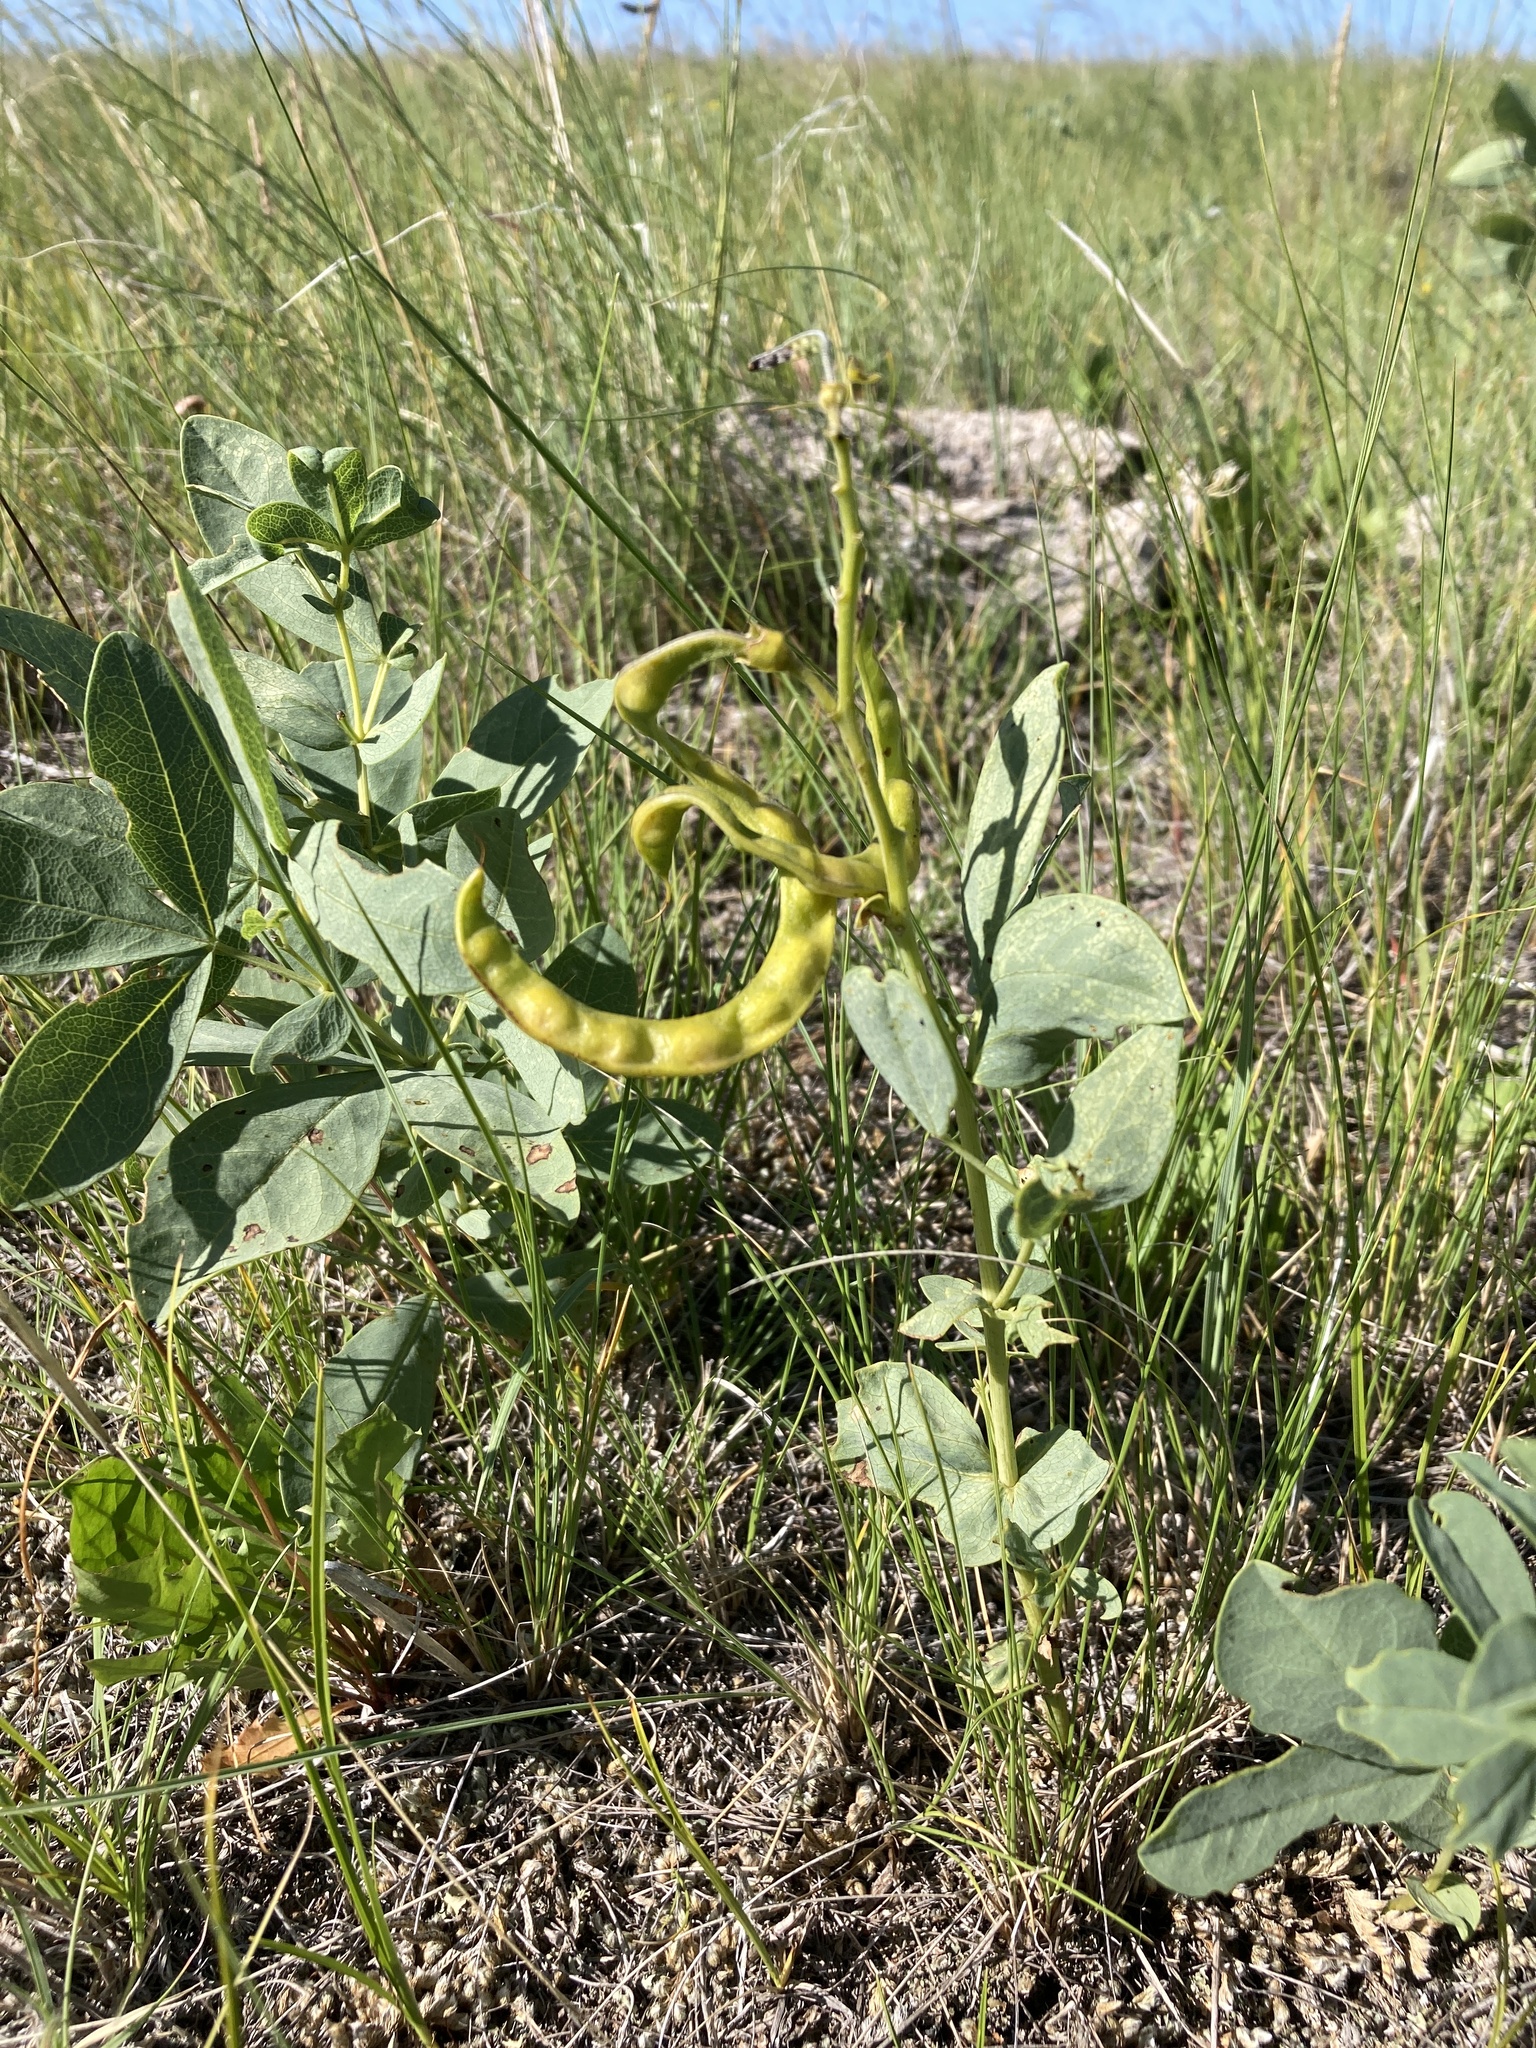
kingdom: Plantae
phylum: Tracheophyta
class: Magnoliopsida
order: Fabales
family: Fabaceae
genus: Thermopsis
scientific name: Thermopsis rhombifolia
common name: Circle-pod-pea
